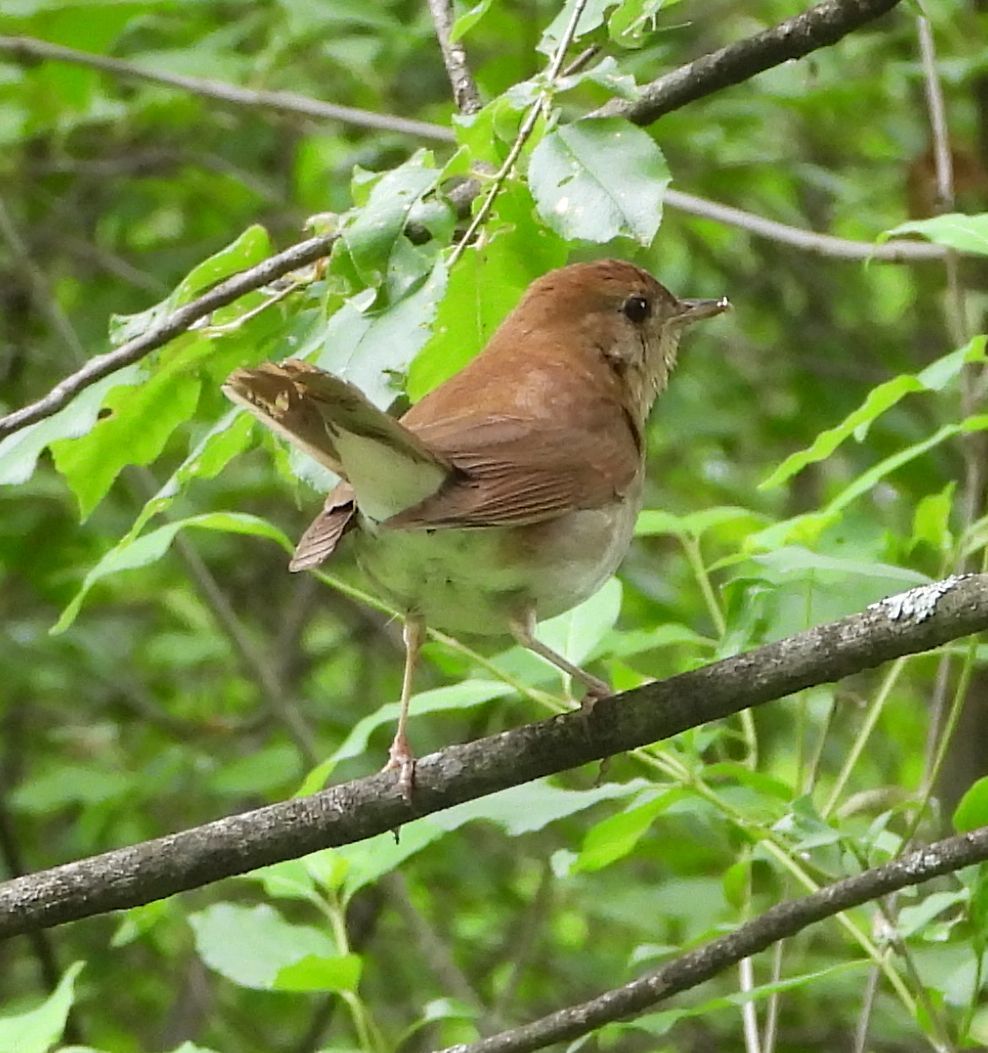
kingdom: Animalia
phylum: Chordata
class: Aves
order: Passeriformes
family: Turdidae
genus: Catharus
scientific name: Catharus fuscescens
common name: Veery
